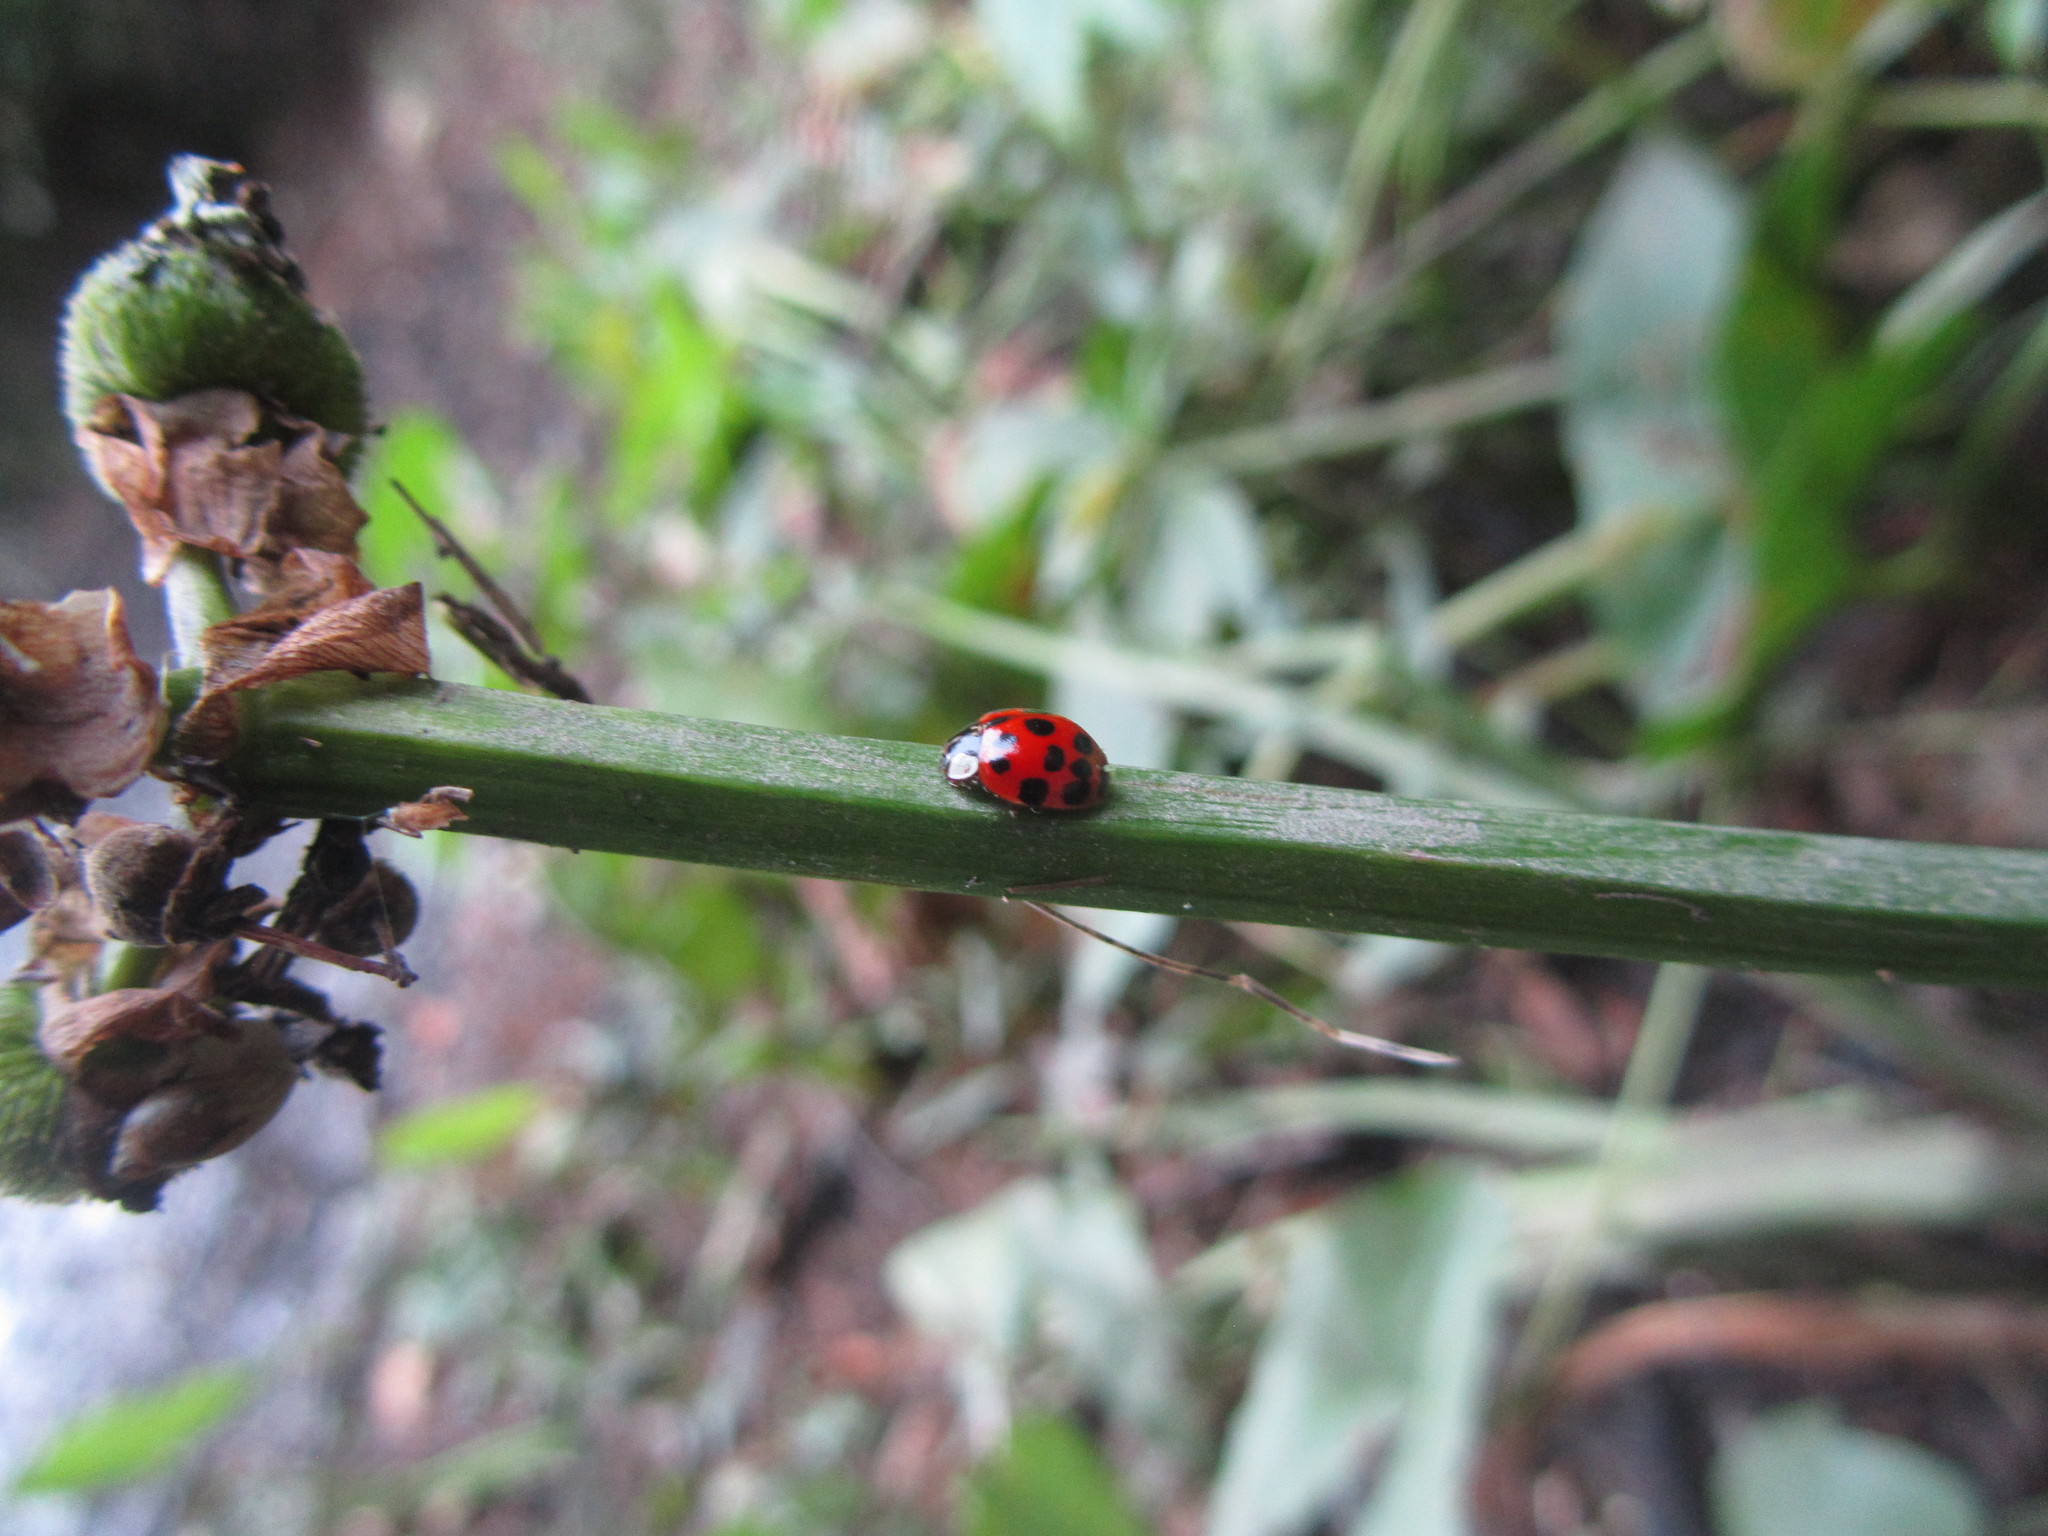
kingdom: Animalia
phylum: Arthropoda
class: Insecta
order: Coleoptera
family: Coccinellidae
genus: Harmonia
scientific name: Harmonia axyridis
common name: Harlequin ladybird
